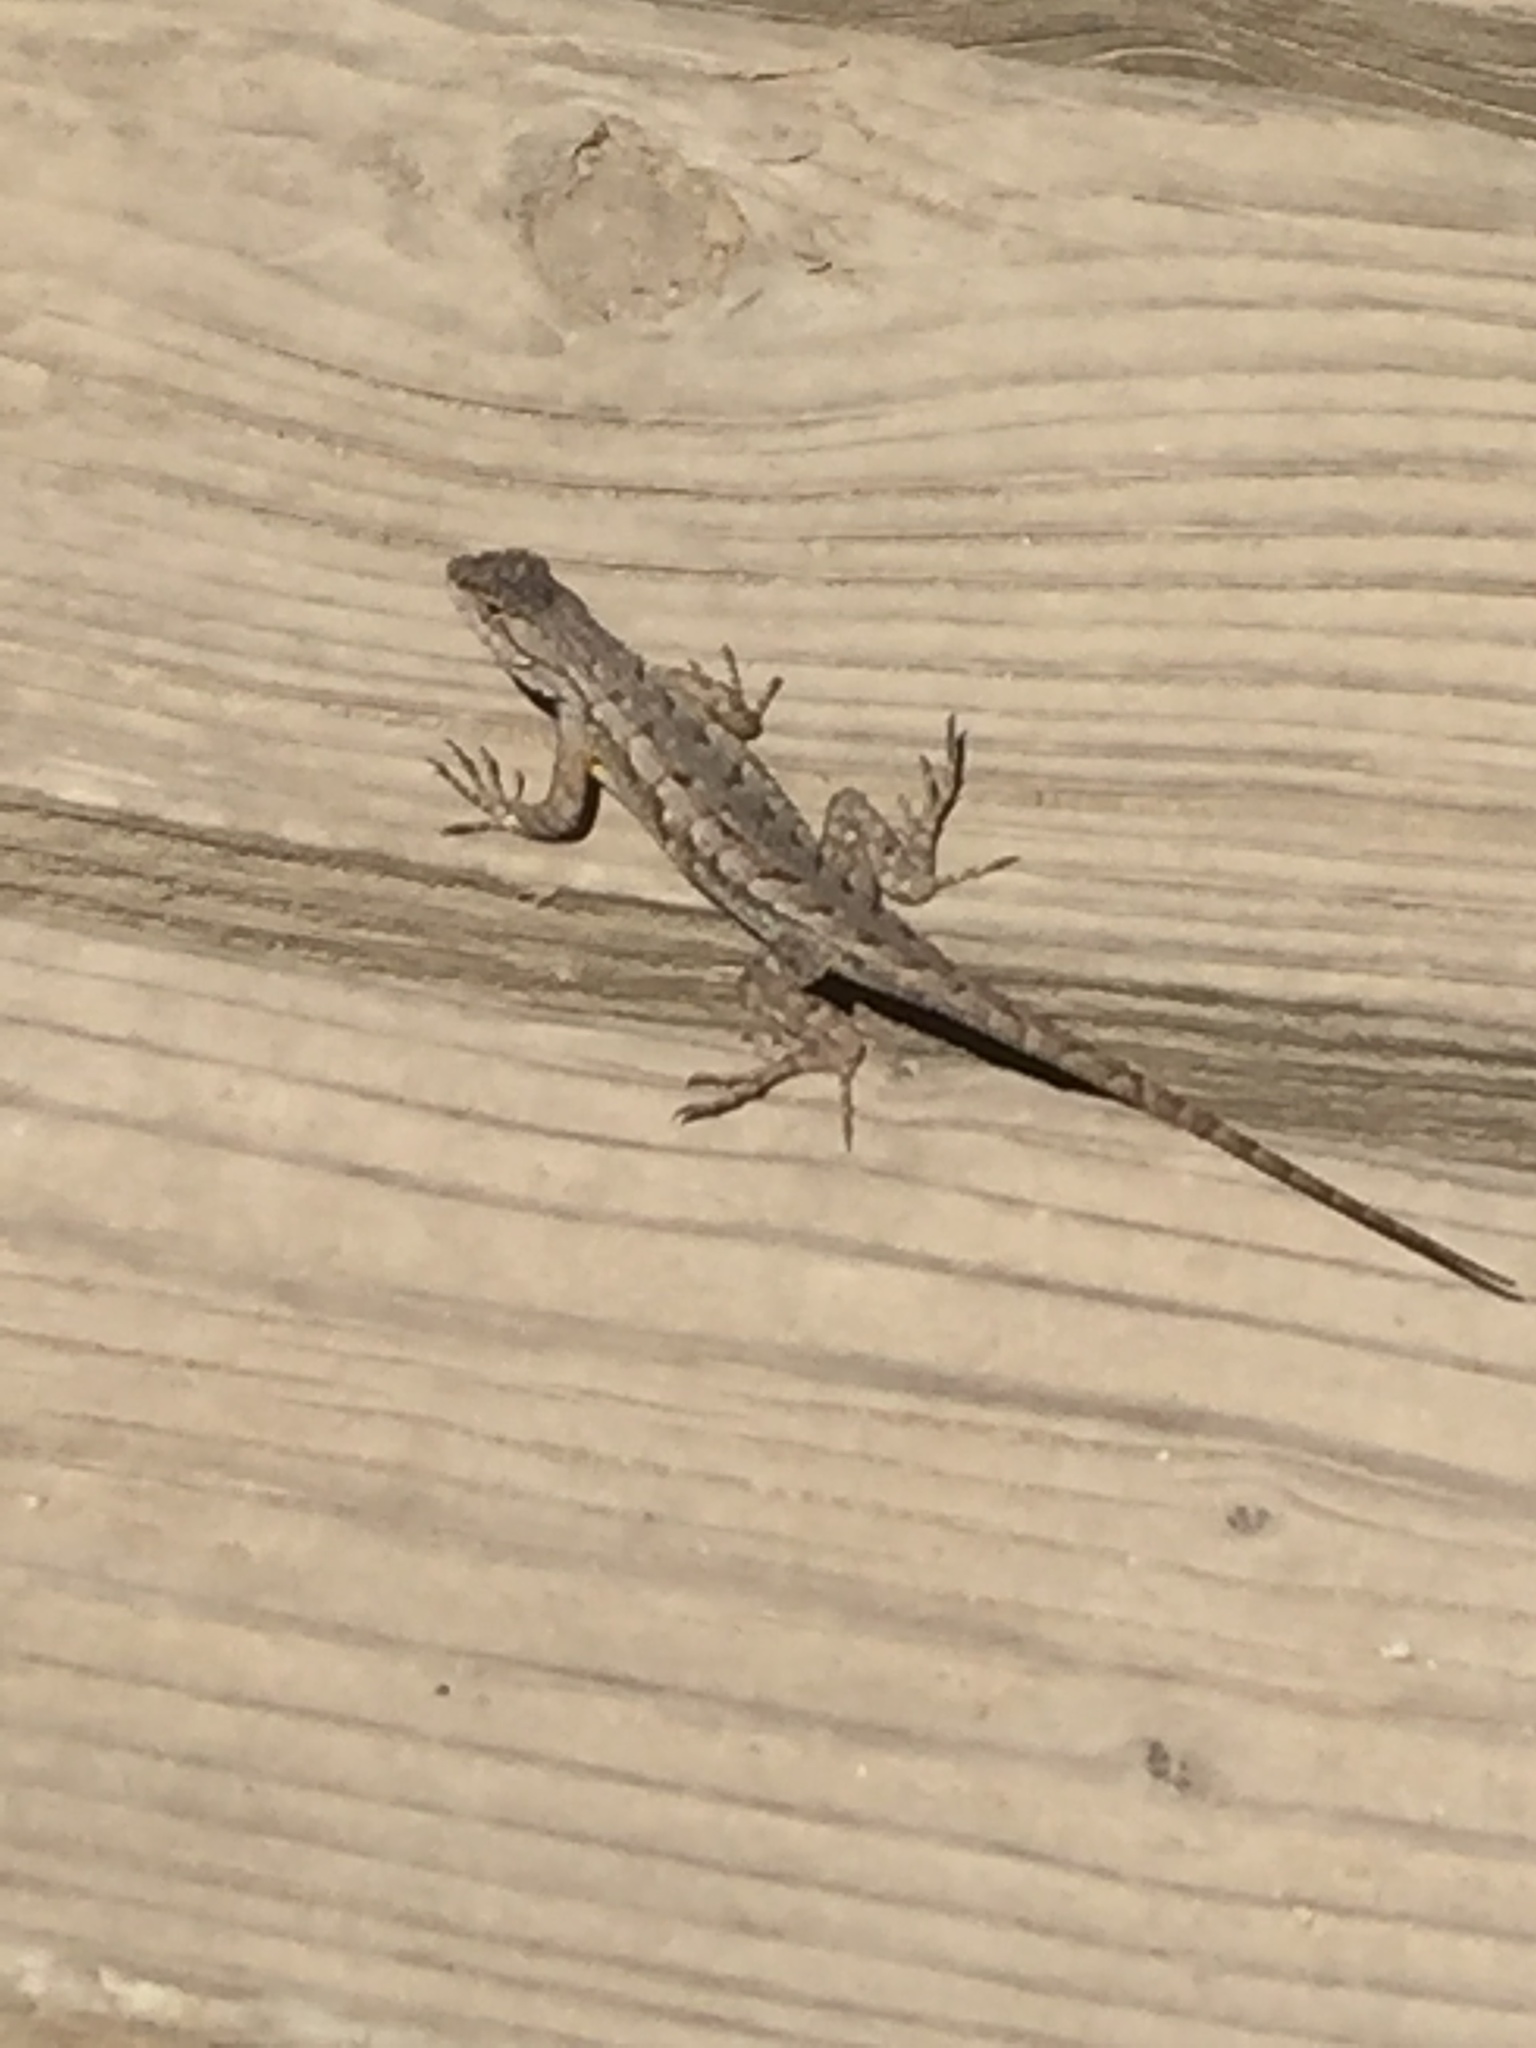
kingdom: Animalia
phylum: Chordata
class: Squamata
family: Phrynosomatidae
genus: Sceloporus
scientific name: Sceloporus occidentalis
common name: Western fence lizard
